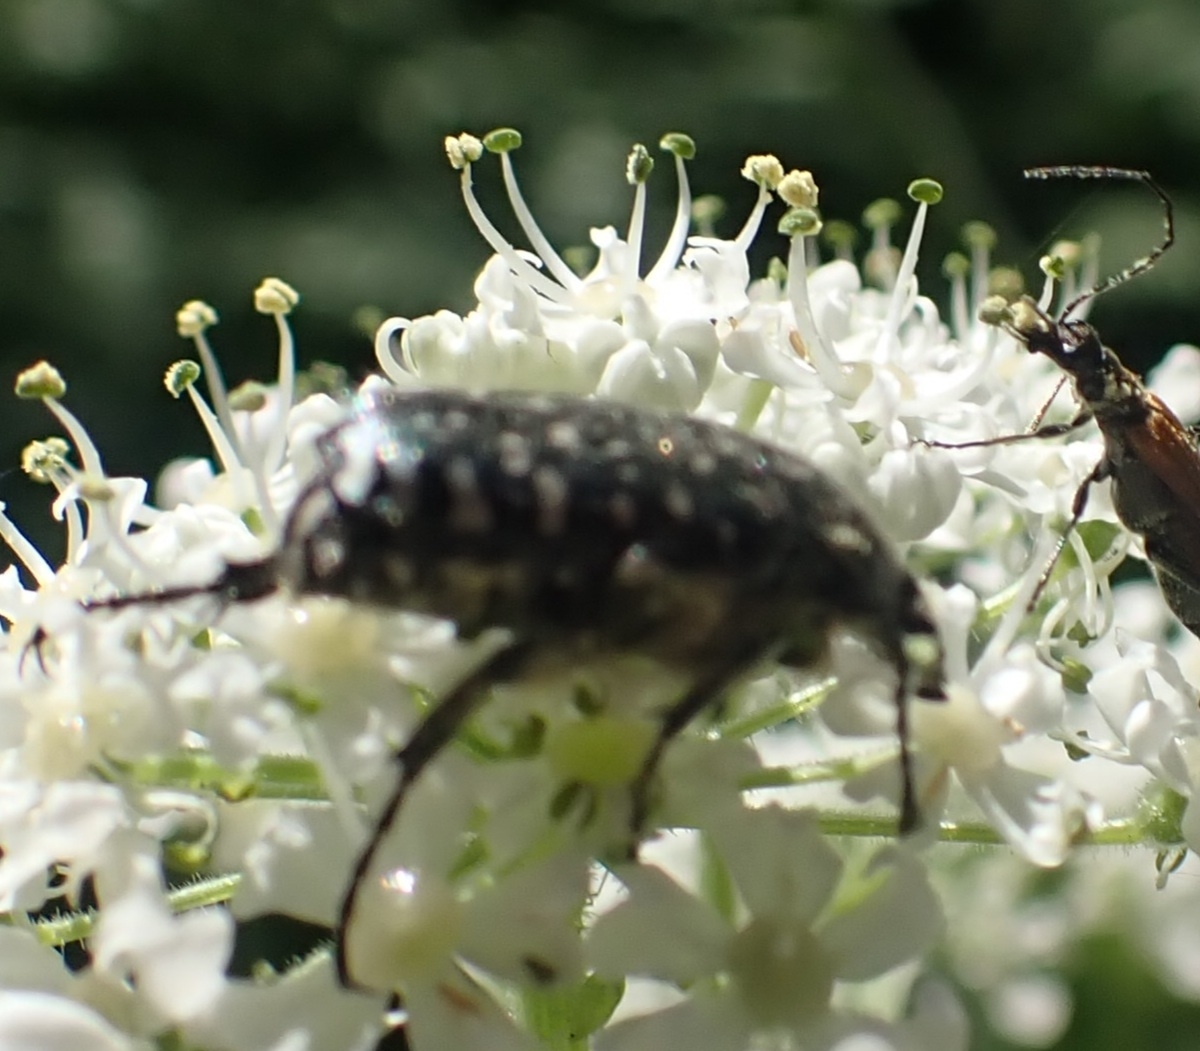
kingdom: Animalia
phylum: Arthropoda
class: Insecta
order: Coleoptera
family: Scarabaeidae
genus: Oxythyrea
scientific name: Oxythyrea funesta
